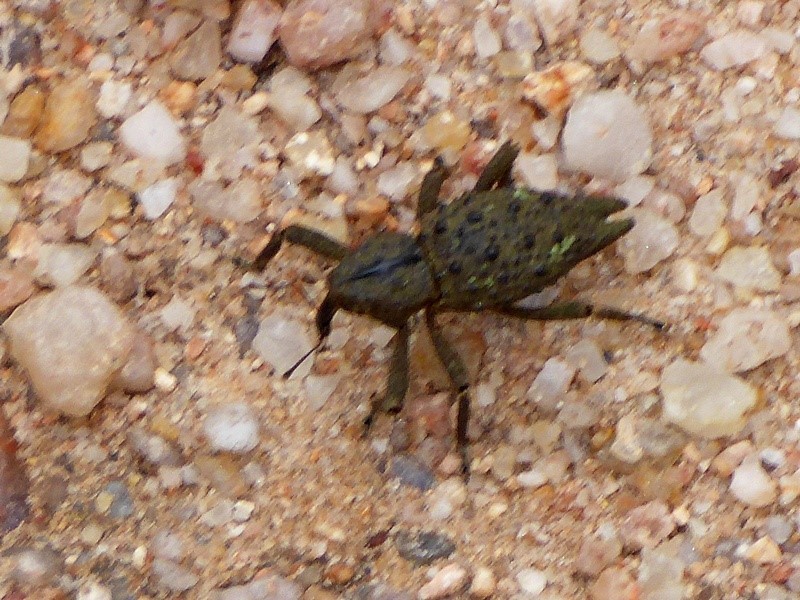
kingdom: Animalia
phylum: Arthropoda
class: Insecta
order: Coleoptera
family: Curculionidae
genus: Poropterus
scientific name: Poropterus ellipticus
